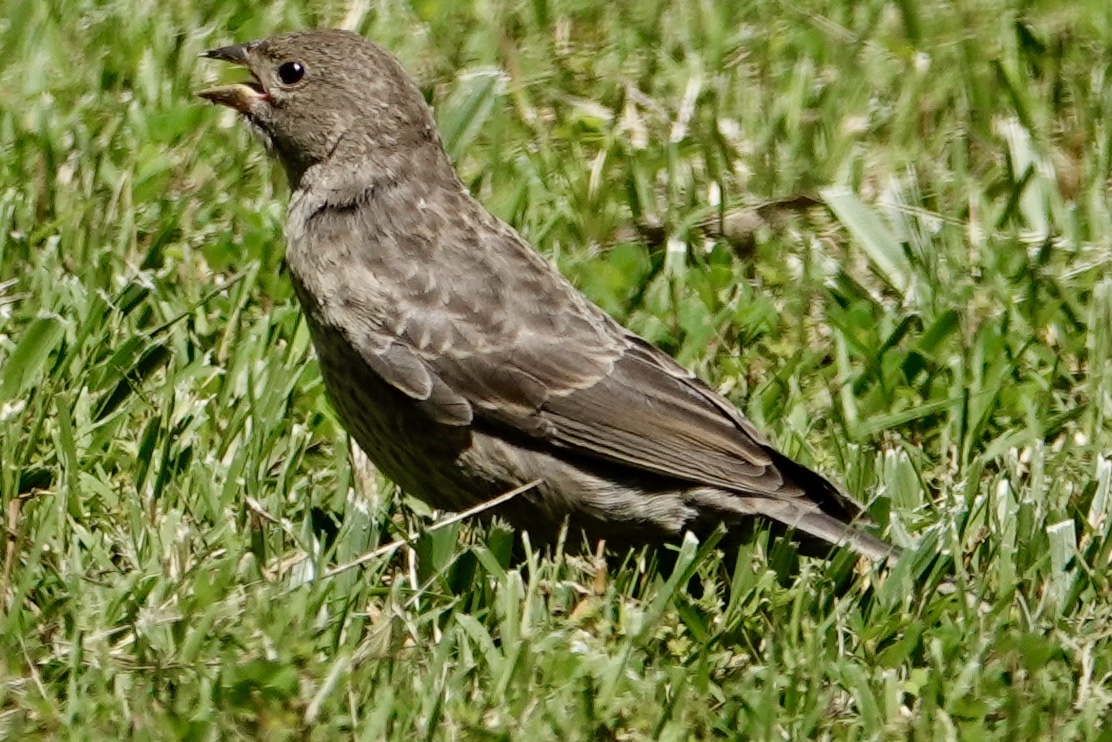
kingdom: Animalia
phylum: Chordata
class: Aves
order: Passeriformes
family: Icteridae
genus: Molothrus
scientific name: Molothrus ater
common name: Brown-headed cowbird
